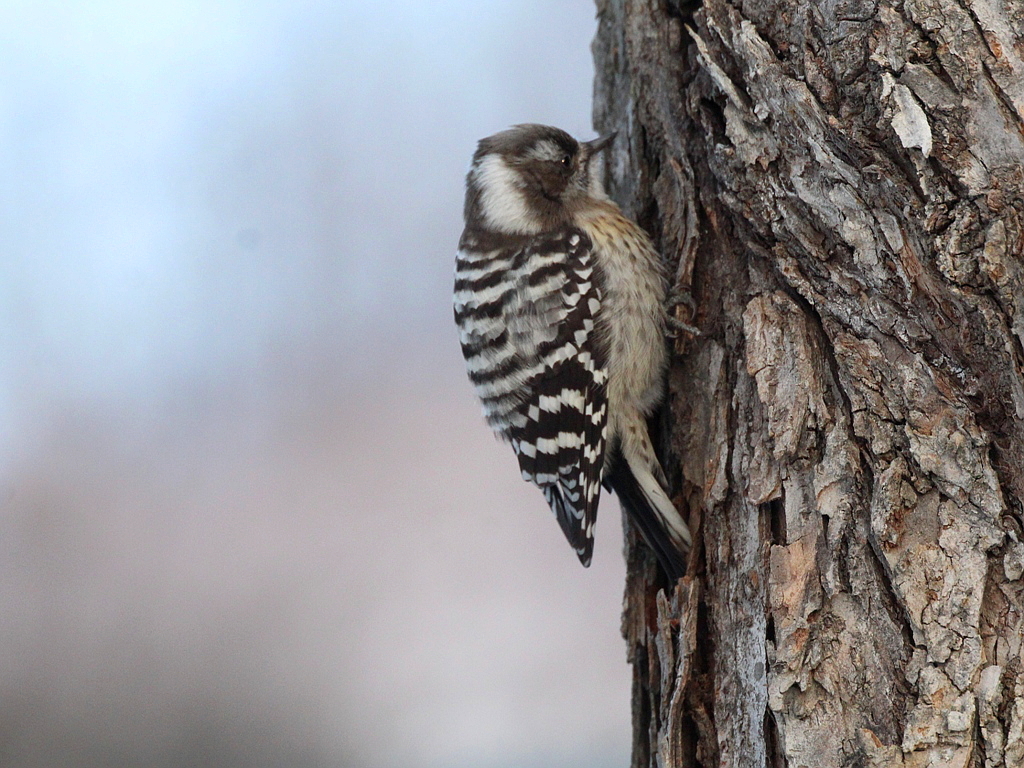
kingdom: Animalia
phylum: Chordata
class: Aves
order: Piciformes
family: Picidae
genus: Yungipicus
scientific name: Yungipicus kizuki
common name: Japanese pygmy woodpecker
